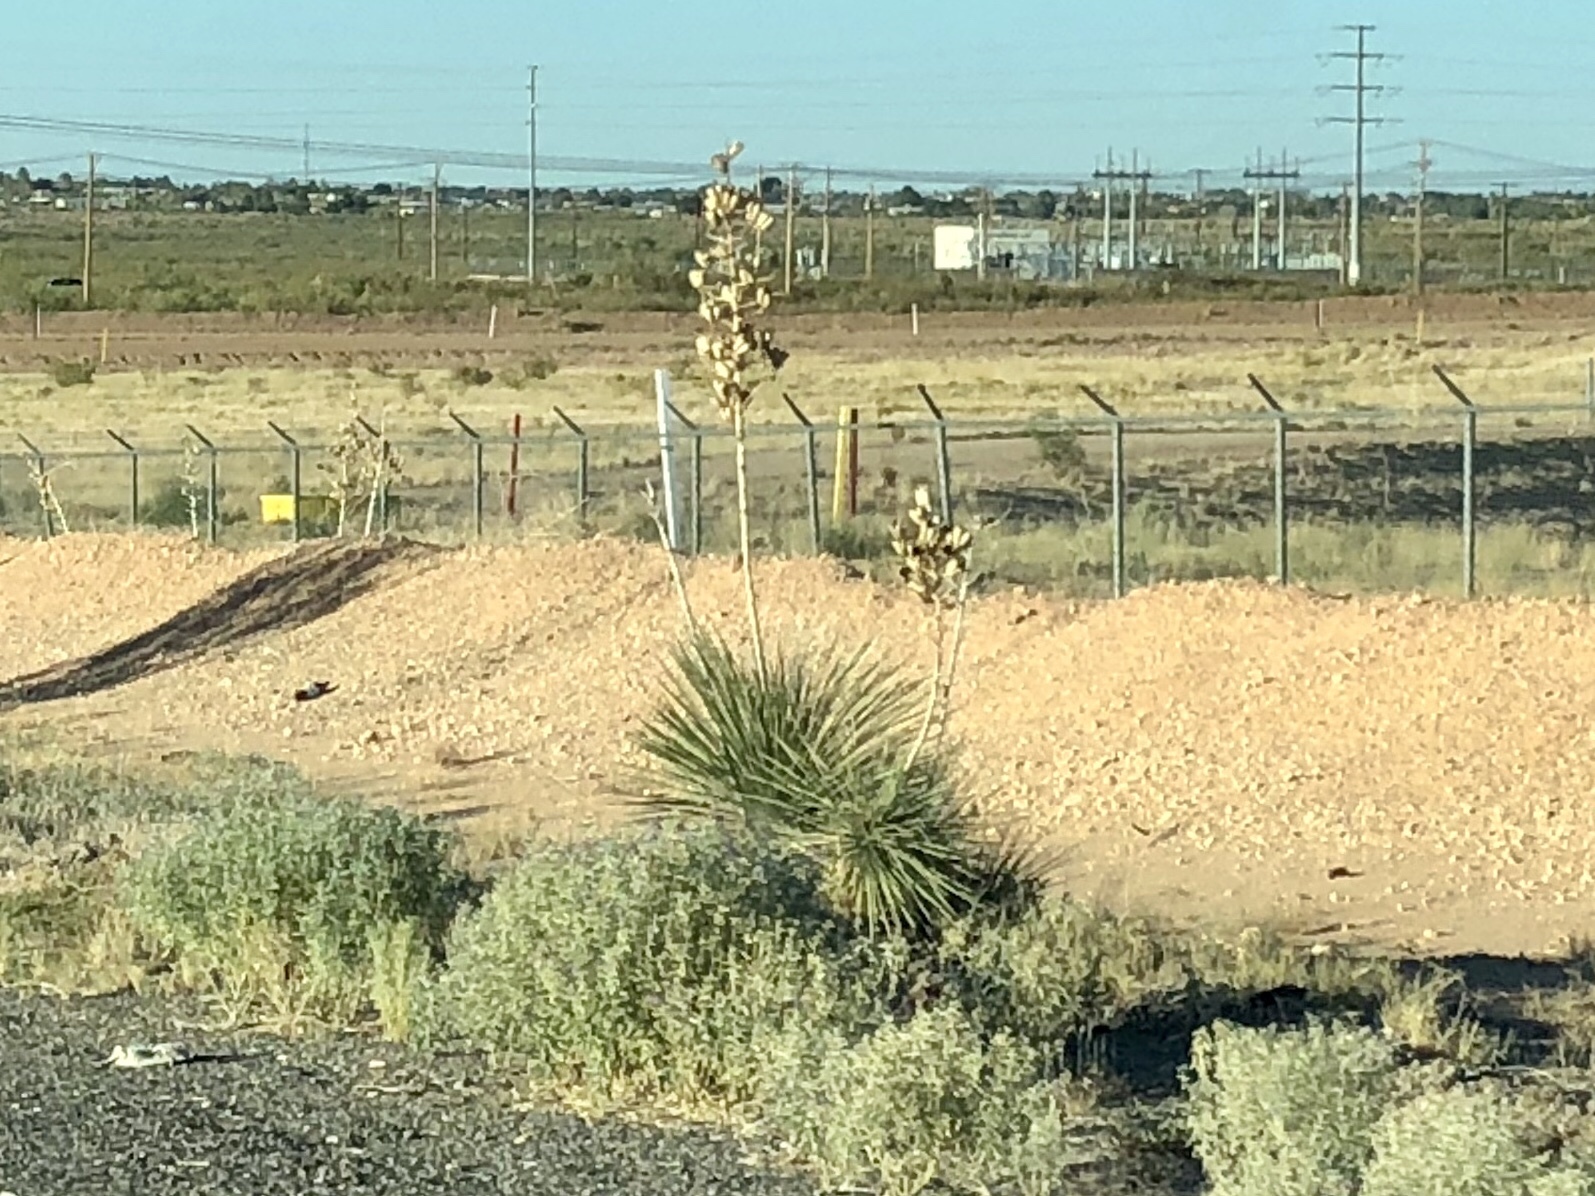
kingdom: Plantae
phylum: Tracheophyta
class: Liliopsida
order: Asparagales
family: Asparagaceae
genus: Yucca
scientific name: Yucca elata
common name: Palmella
